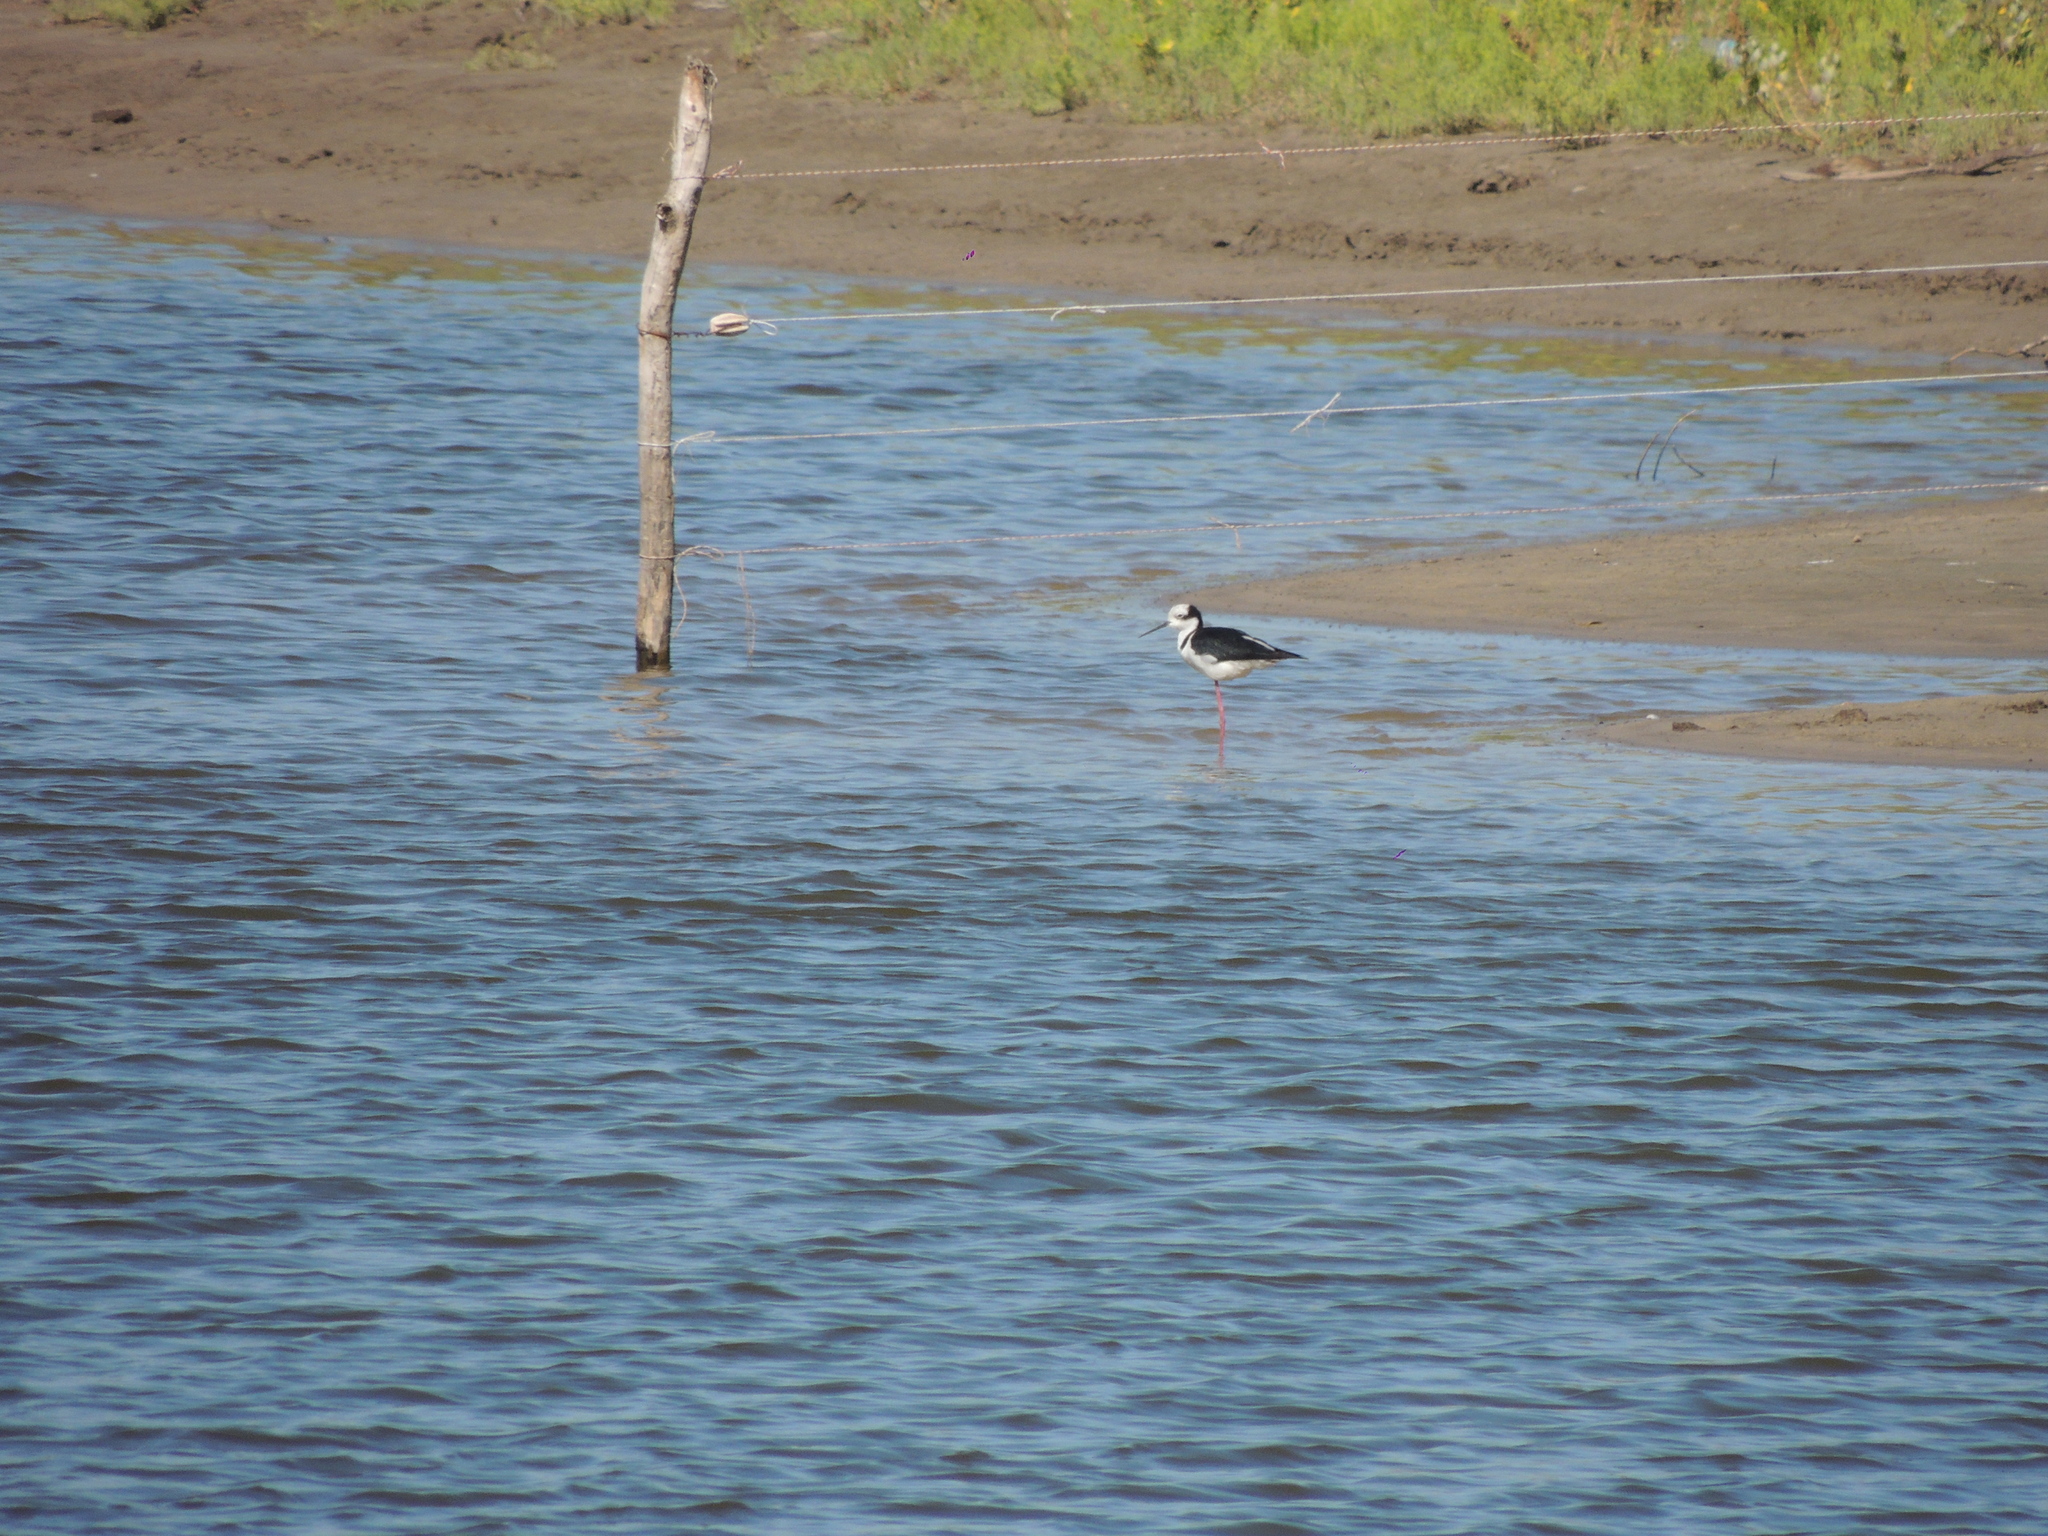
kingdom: Animalia
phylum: Chordata
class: Aves
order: Charadriiformes
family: Recurvirostridae
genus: Himantopus
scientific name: Himantopus mexicanus
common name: Black-necked stilt
